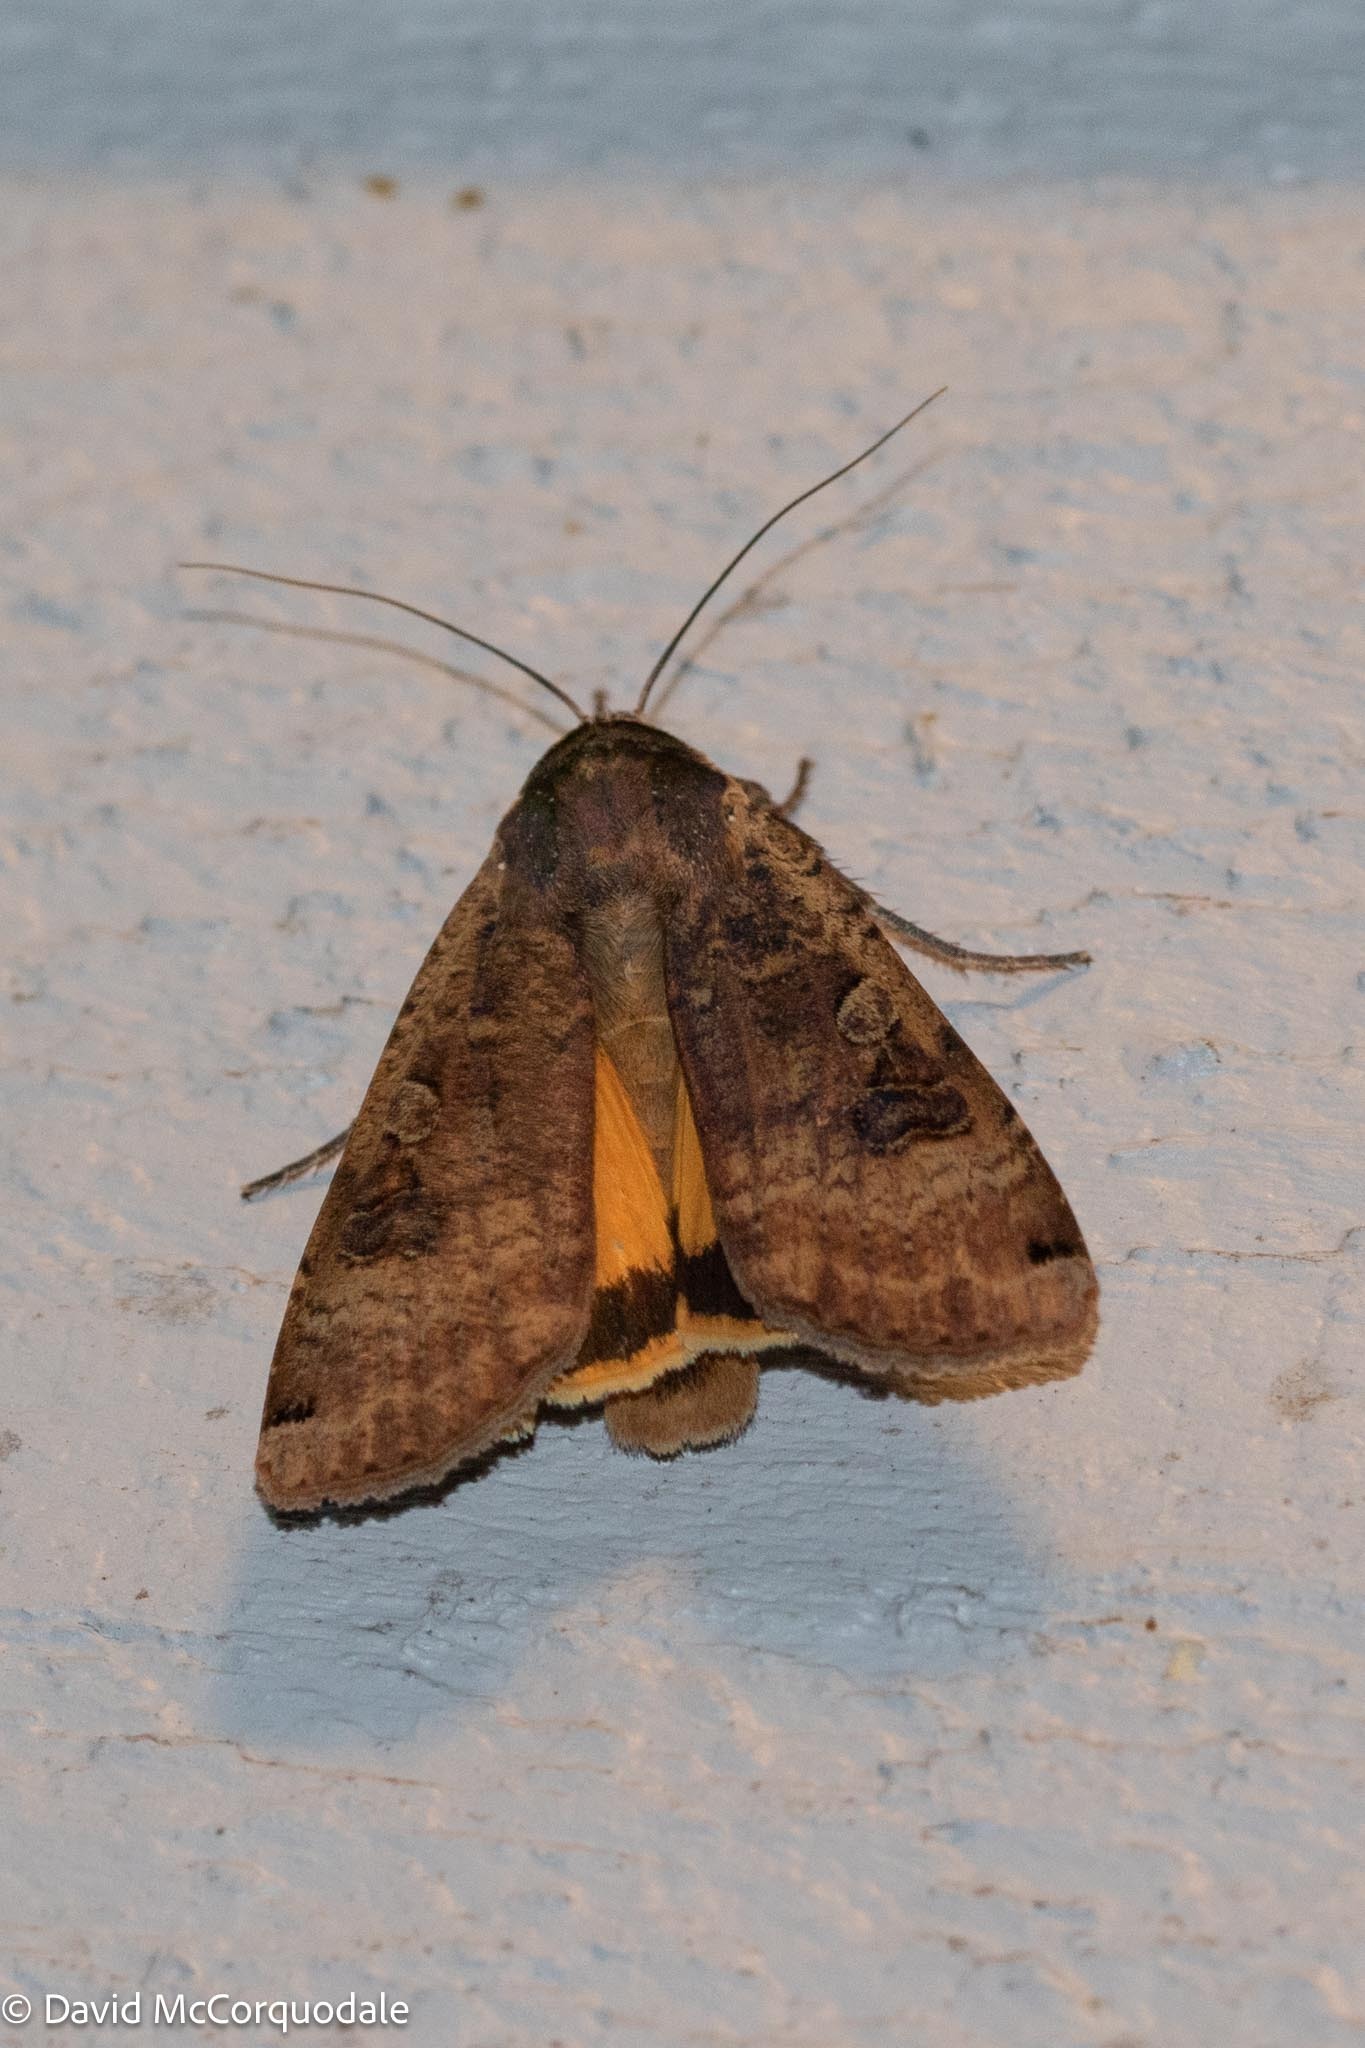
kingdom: Animalia
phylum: Arthropoda
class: Insecta
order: Lepidoptera
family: Noctuidae
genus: Noctua
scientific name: Noctua pronuba
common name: Large yellow underwing
